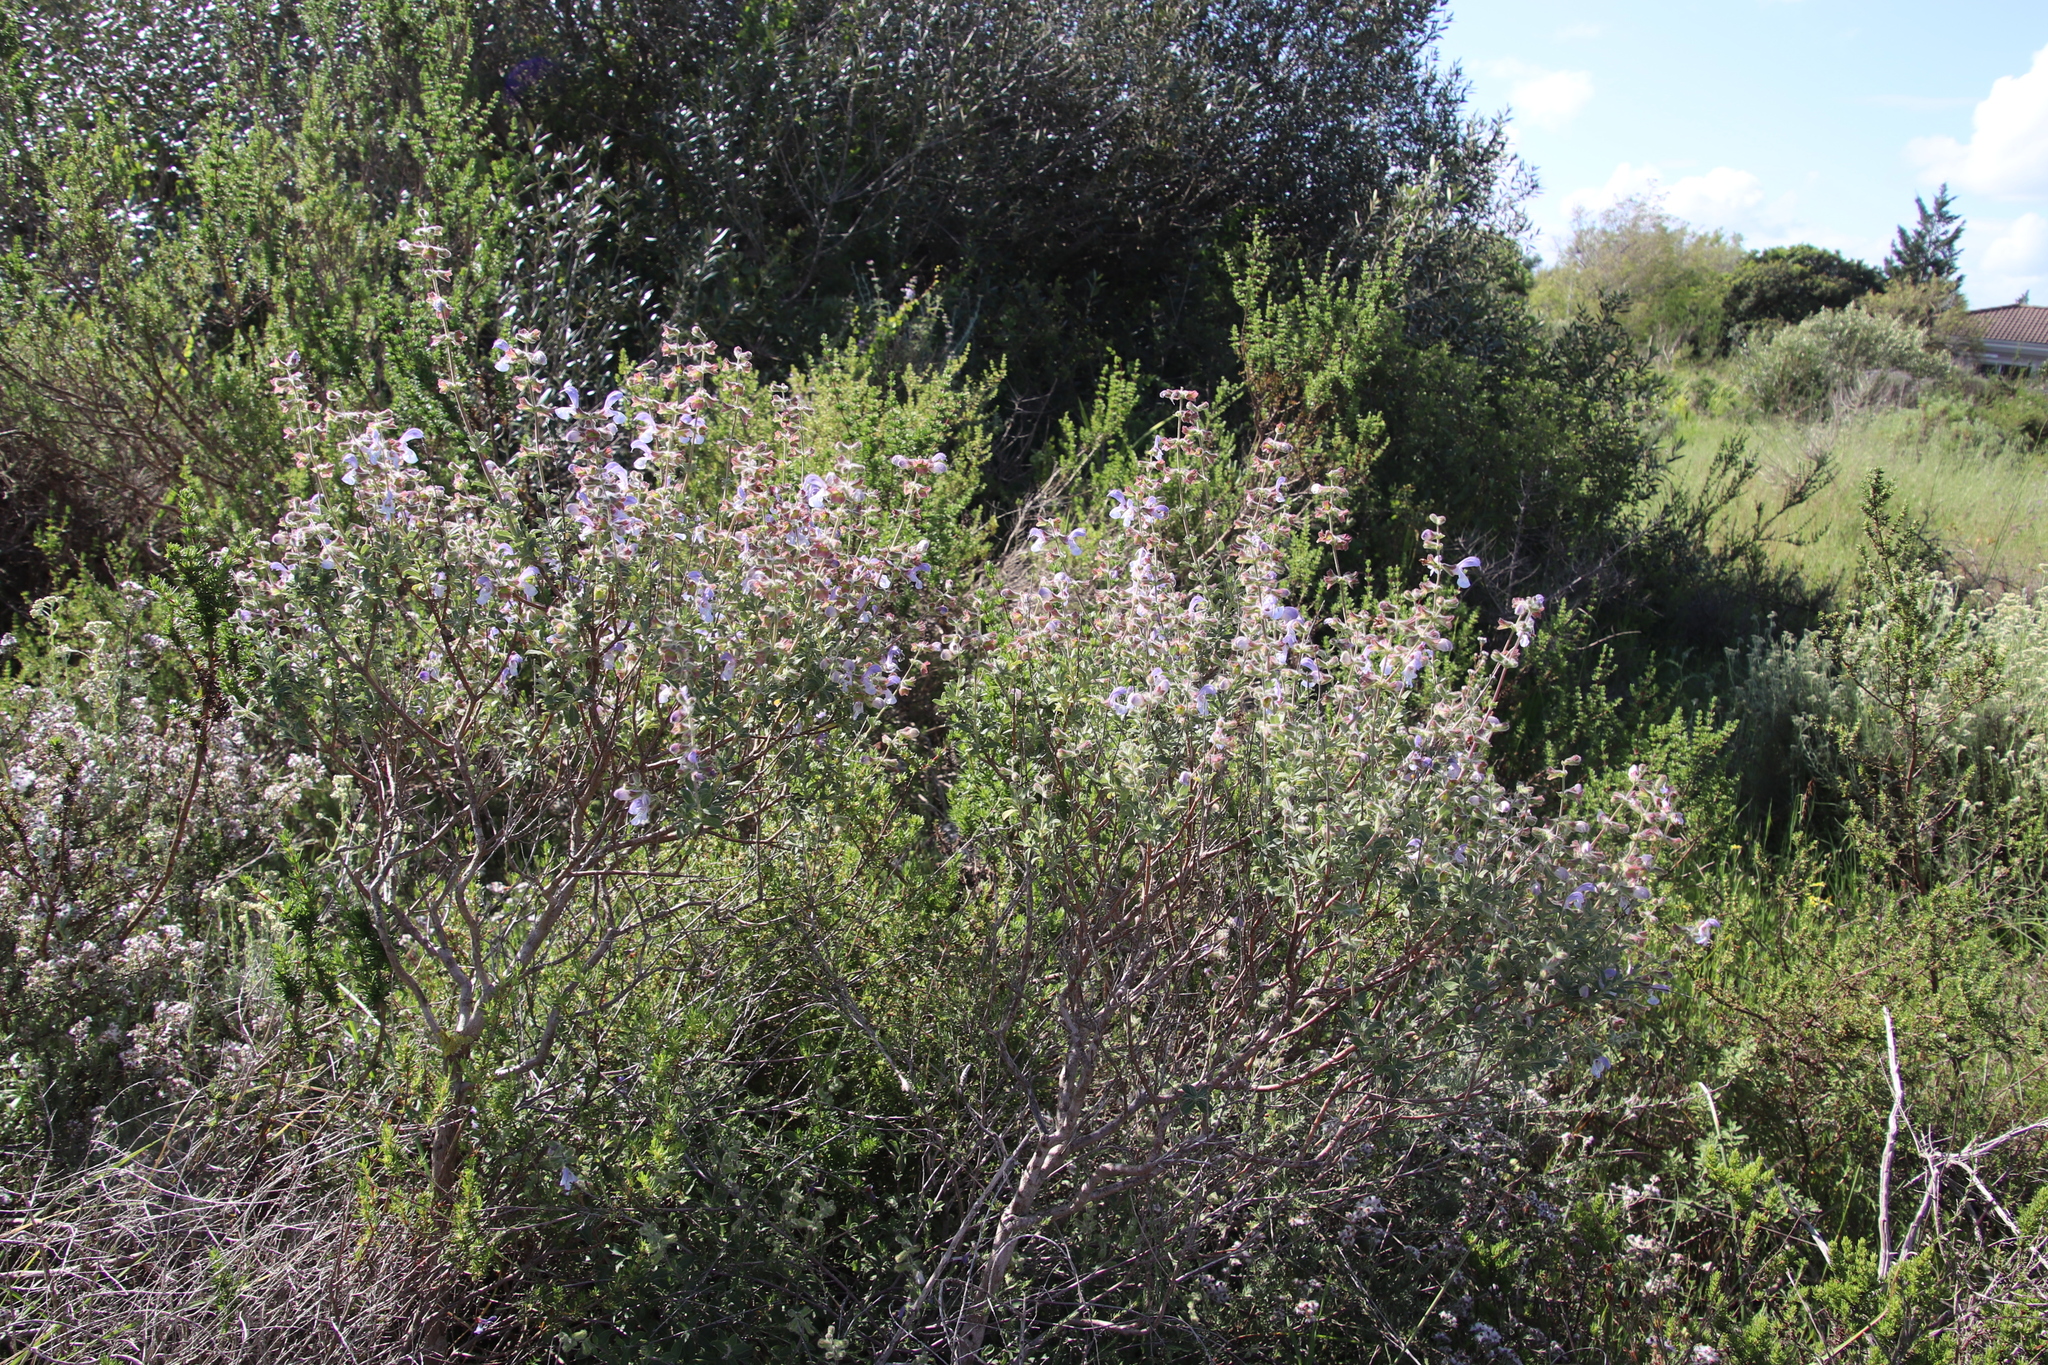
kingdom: Plantae
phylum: Tracheophyta
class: Magnoliopsida
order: Lamiales
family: Lamiaceae
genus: Salvia
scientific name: Salvia africana
